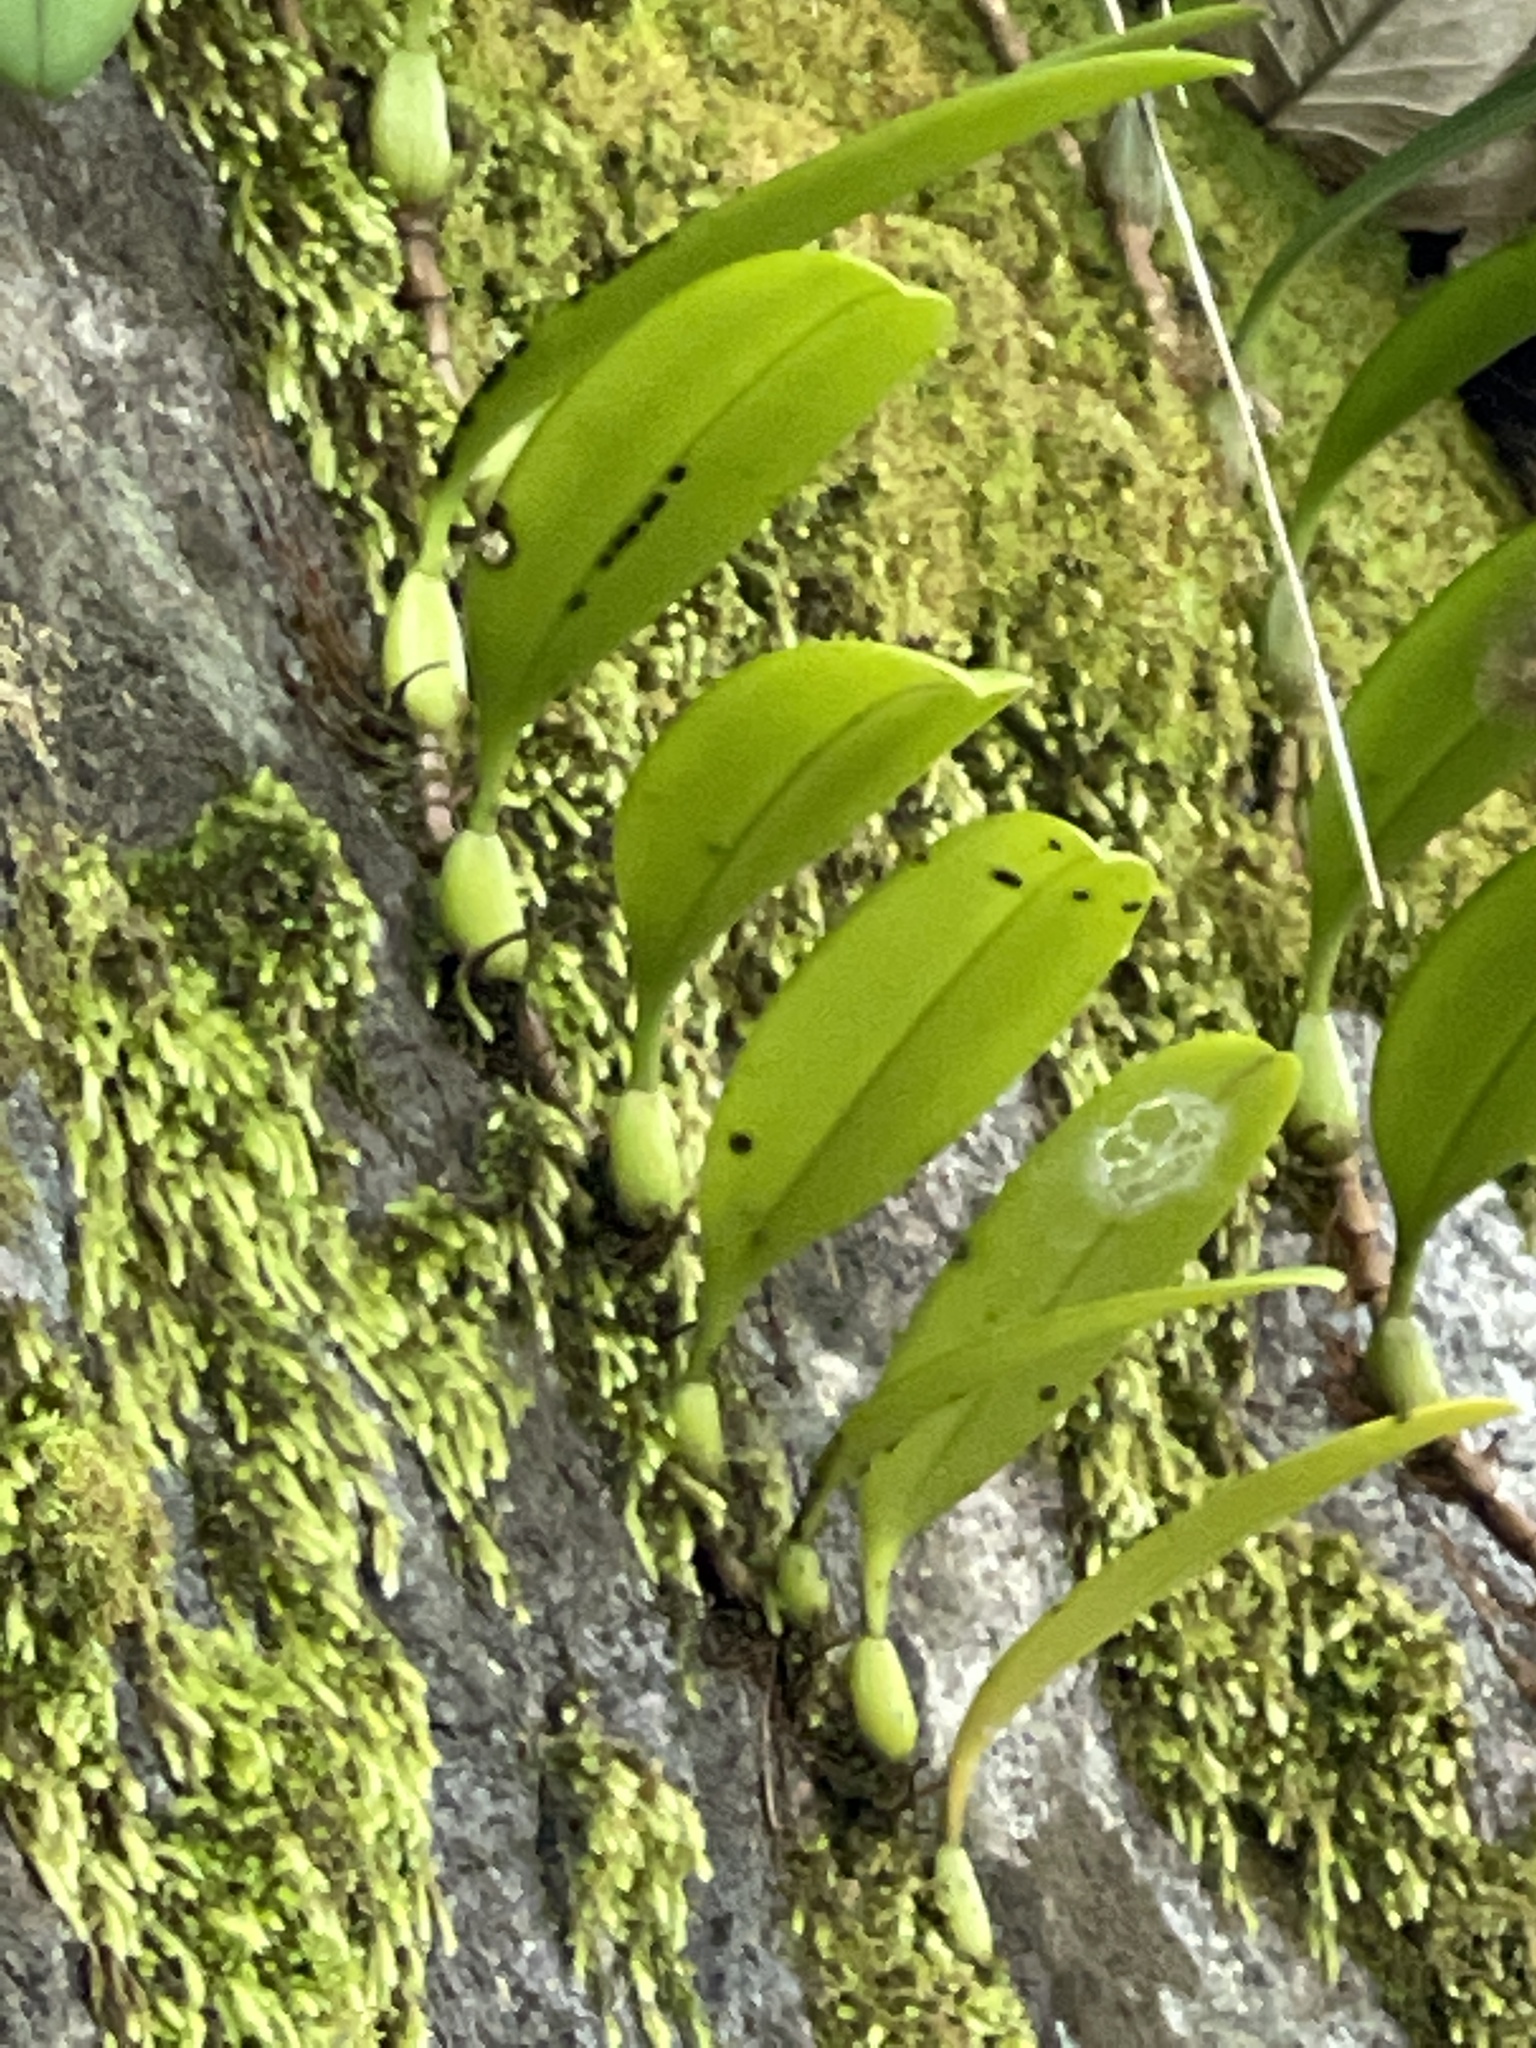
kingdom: Plantae
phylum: Tracheophyta
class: Liliopsida
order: Asparagales
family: Orchidaceae
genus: Bulbophyllum
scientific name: Bulbophyllum baileyi
